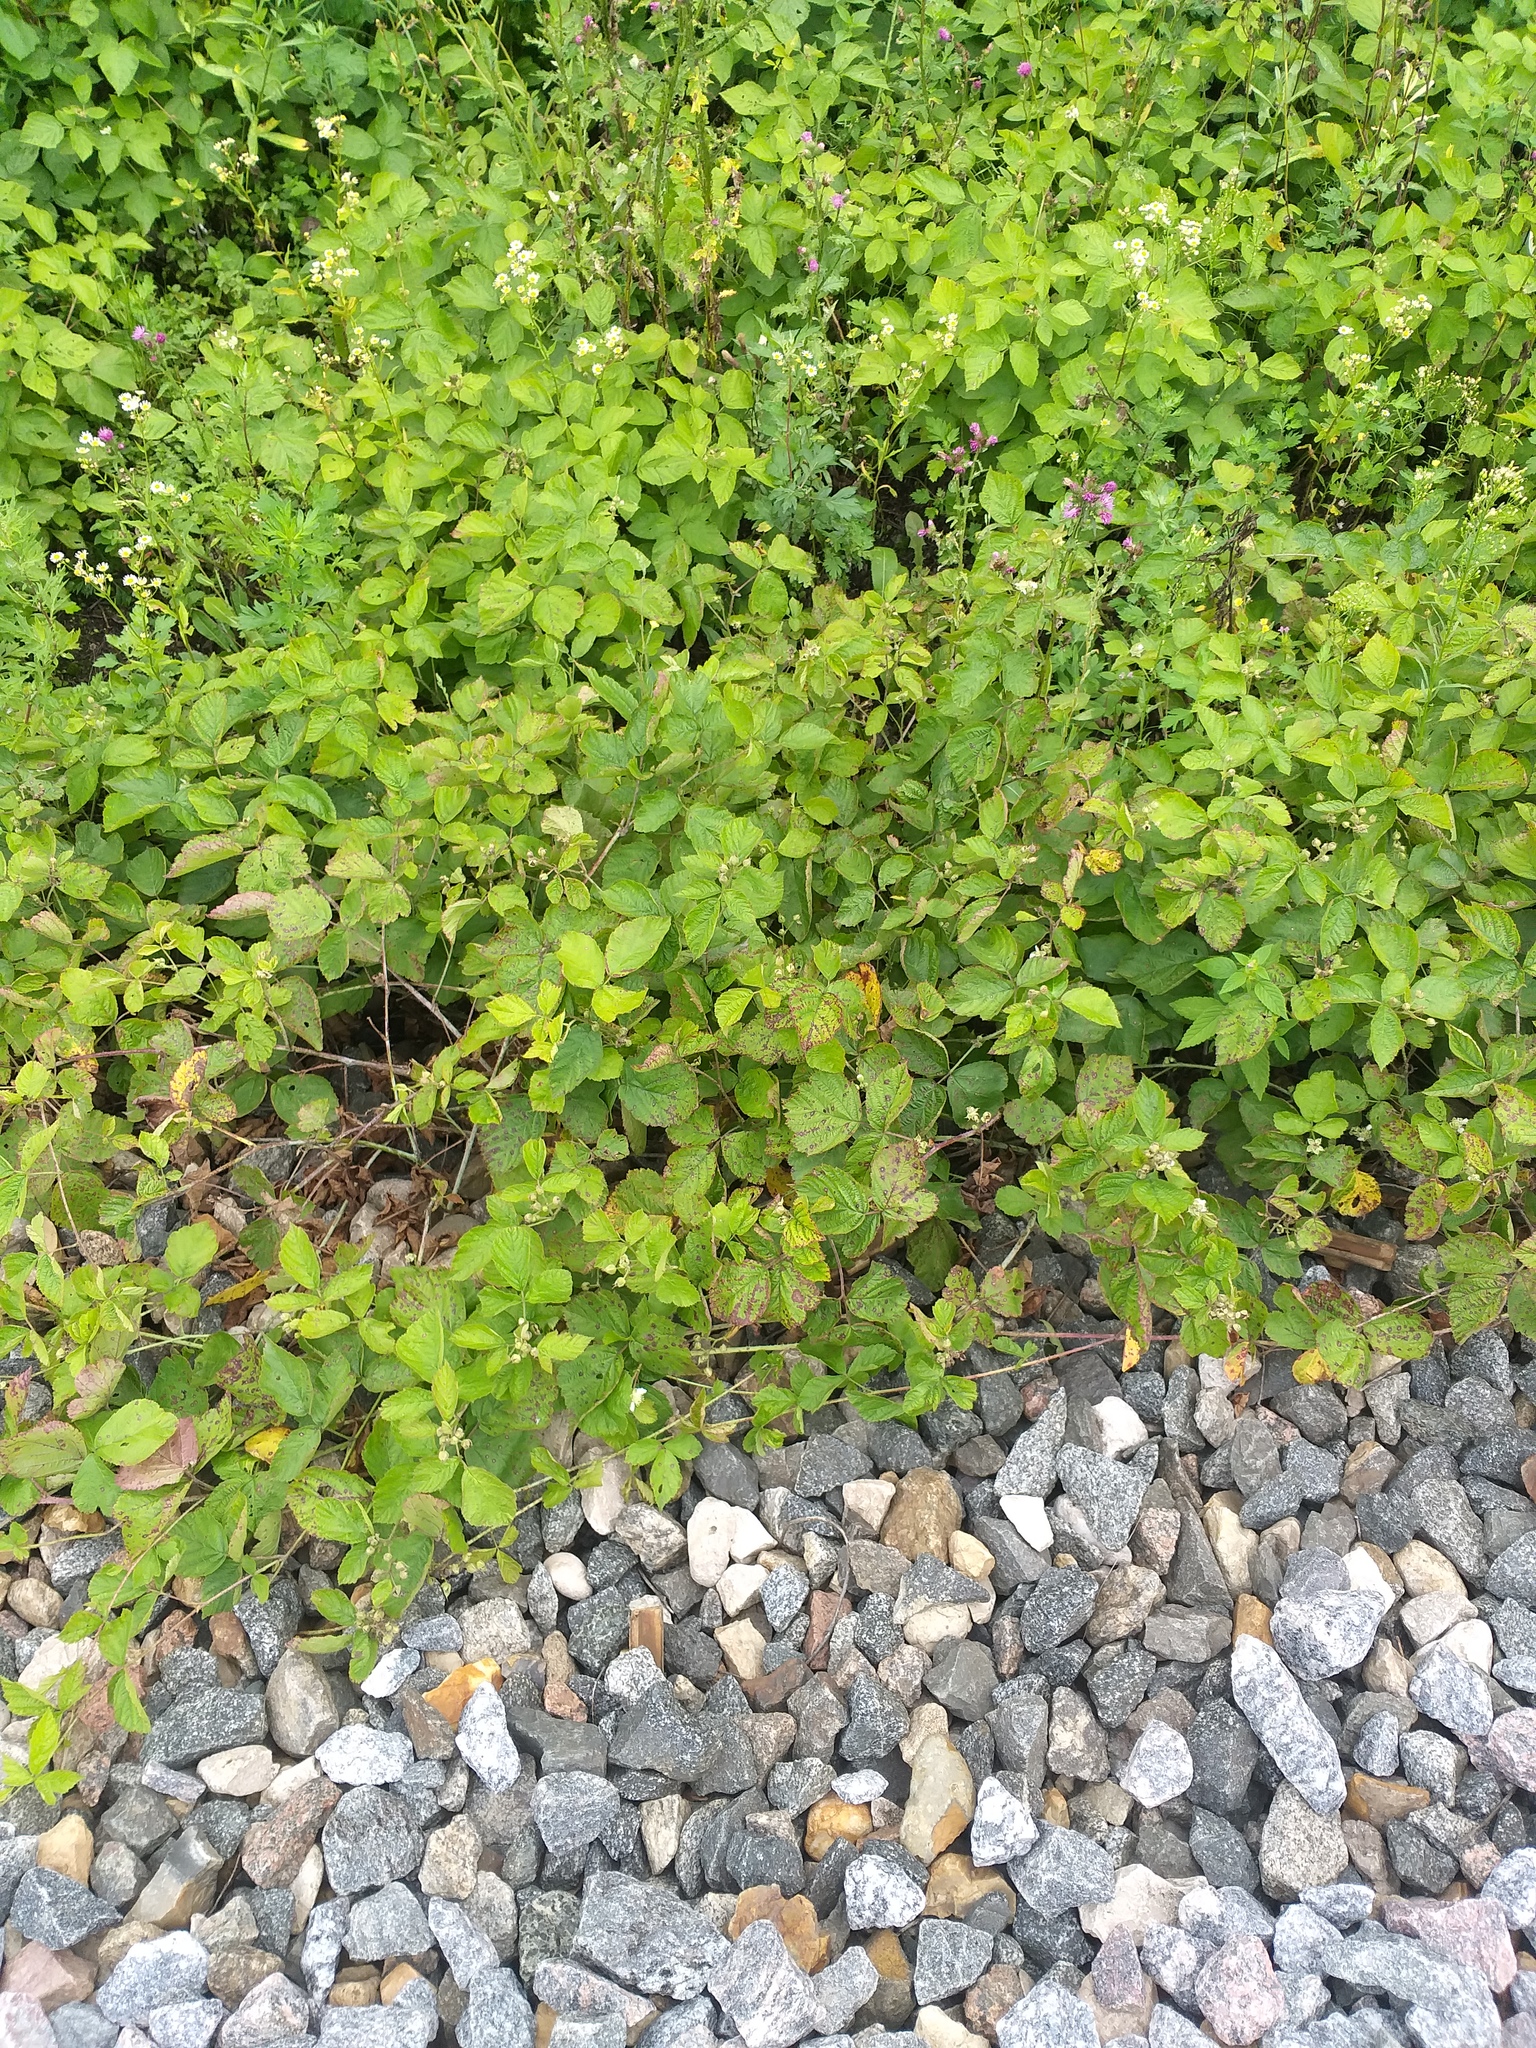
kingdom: Plantae
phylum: Tracheophyta
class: Magnoliopsida
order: Rosales
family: Rosaceae
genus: Rubus
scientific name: Rubus caesius
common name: Dewberry
